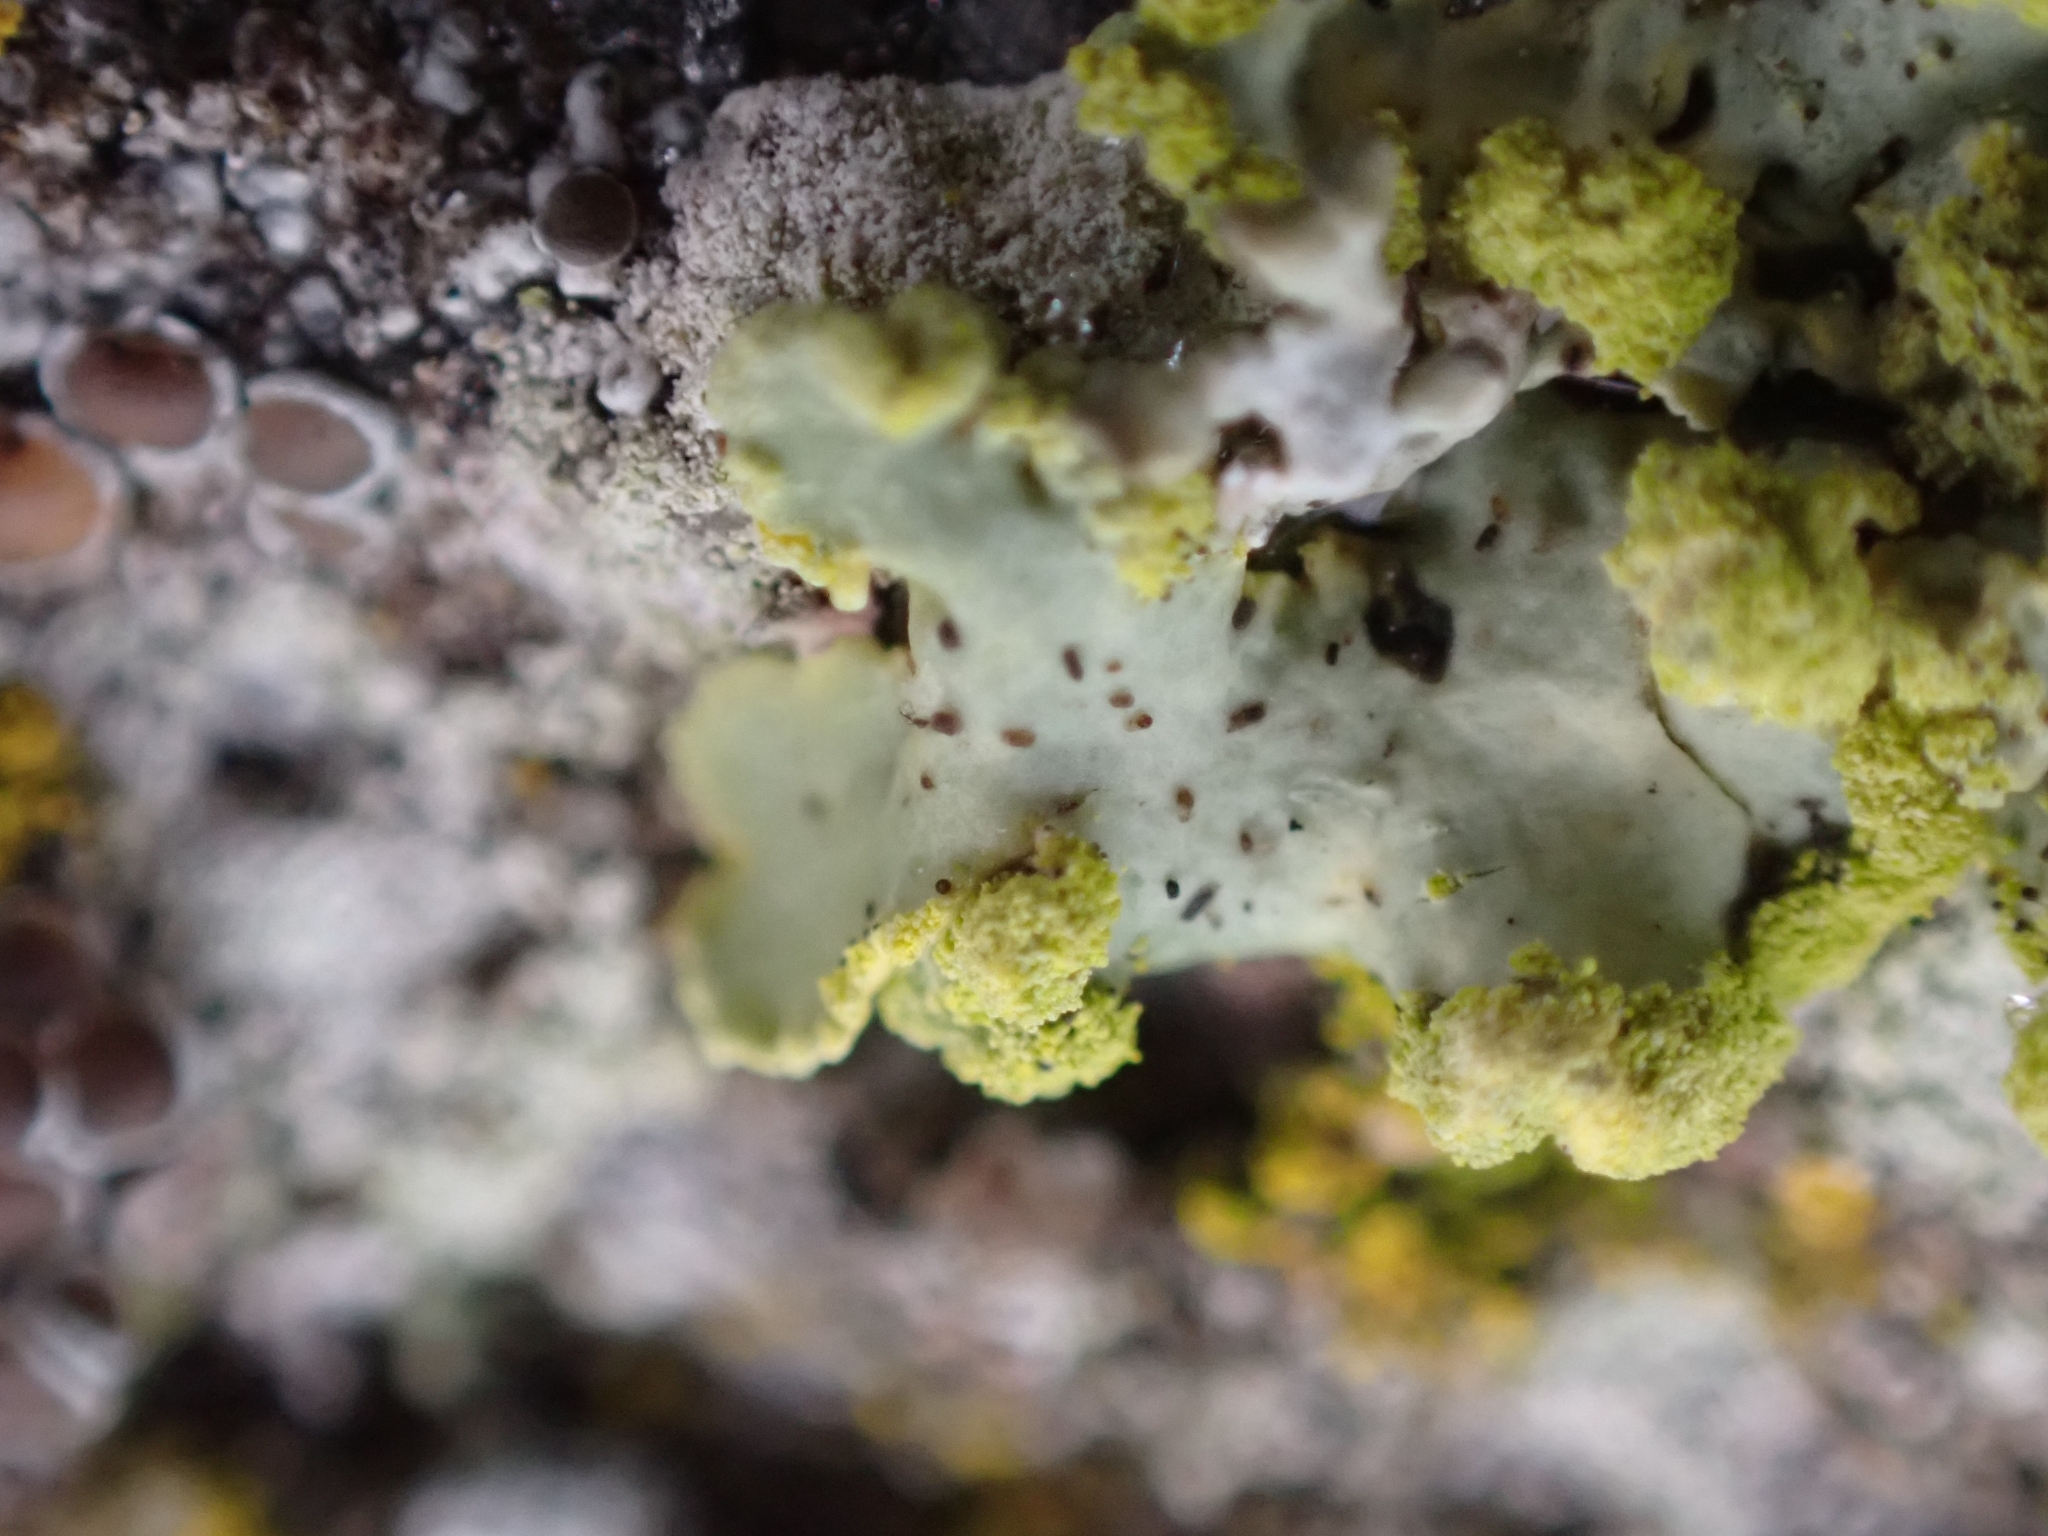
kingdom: Fungi
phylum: Ascomycota
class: Lecanoromycetes
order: Lecanorales
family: Parmeliaceae
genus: Vulpicida
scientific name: Vulpicida pinastri
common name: Powdered sunshine lichen
